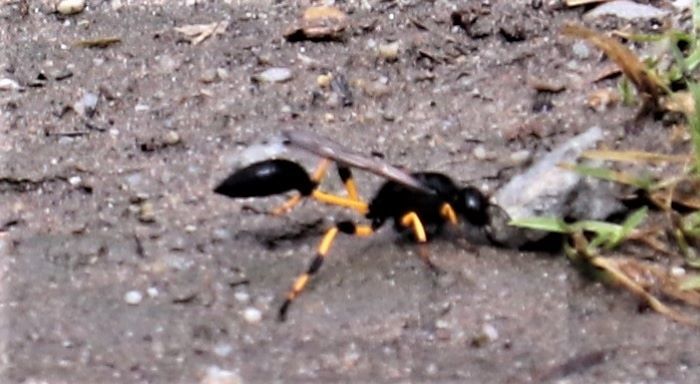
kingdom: Animalia
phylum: Arthropoda
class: Insecta
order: Hymenoptera
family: Sphecidae
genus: Sceliphron
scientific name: Sceliphron spirifex
